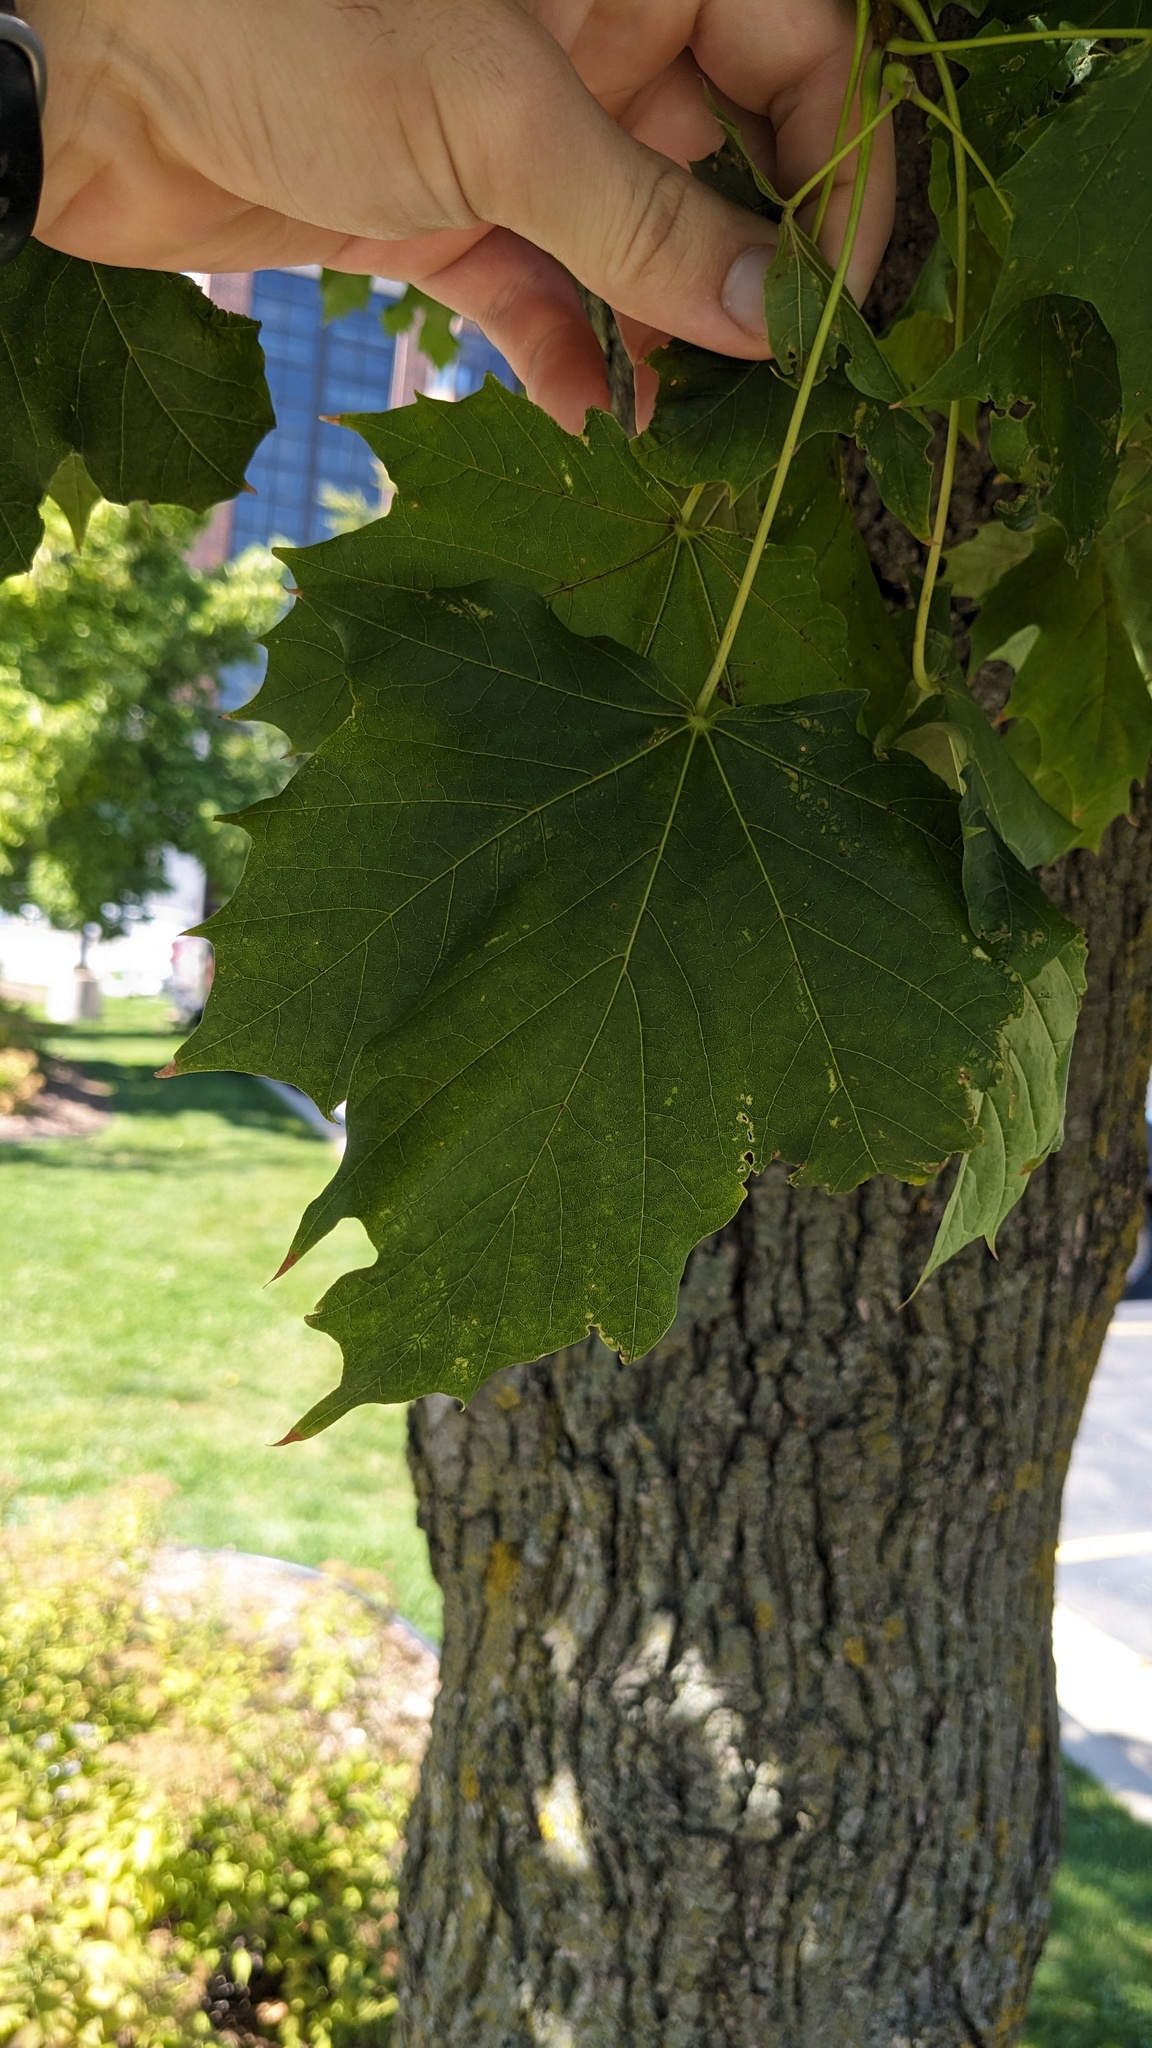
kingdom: Fungi
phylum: Ascomycota
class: Leotiomycetes
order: Rhytismatales
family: Rhytismataceae
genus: Rhytisma
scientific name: Rhytisma acerinum
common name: European tar spot
